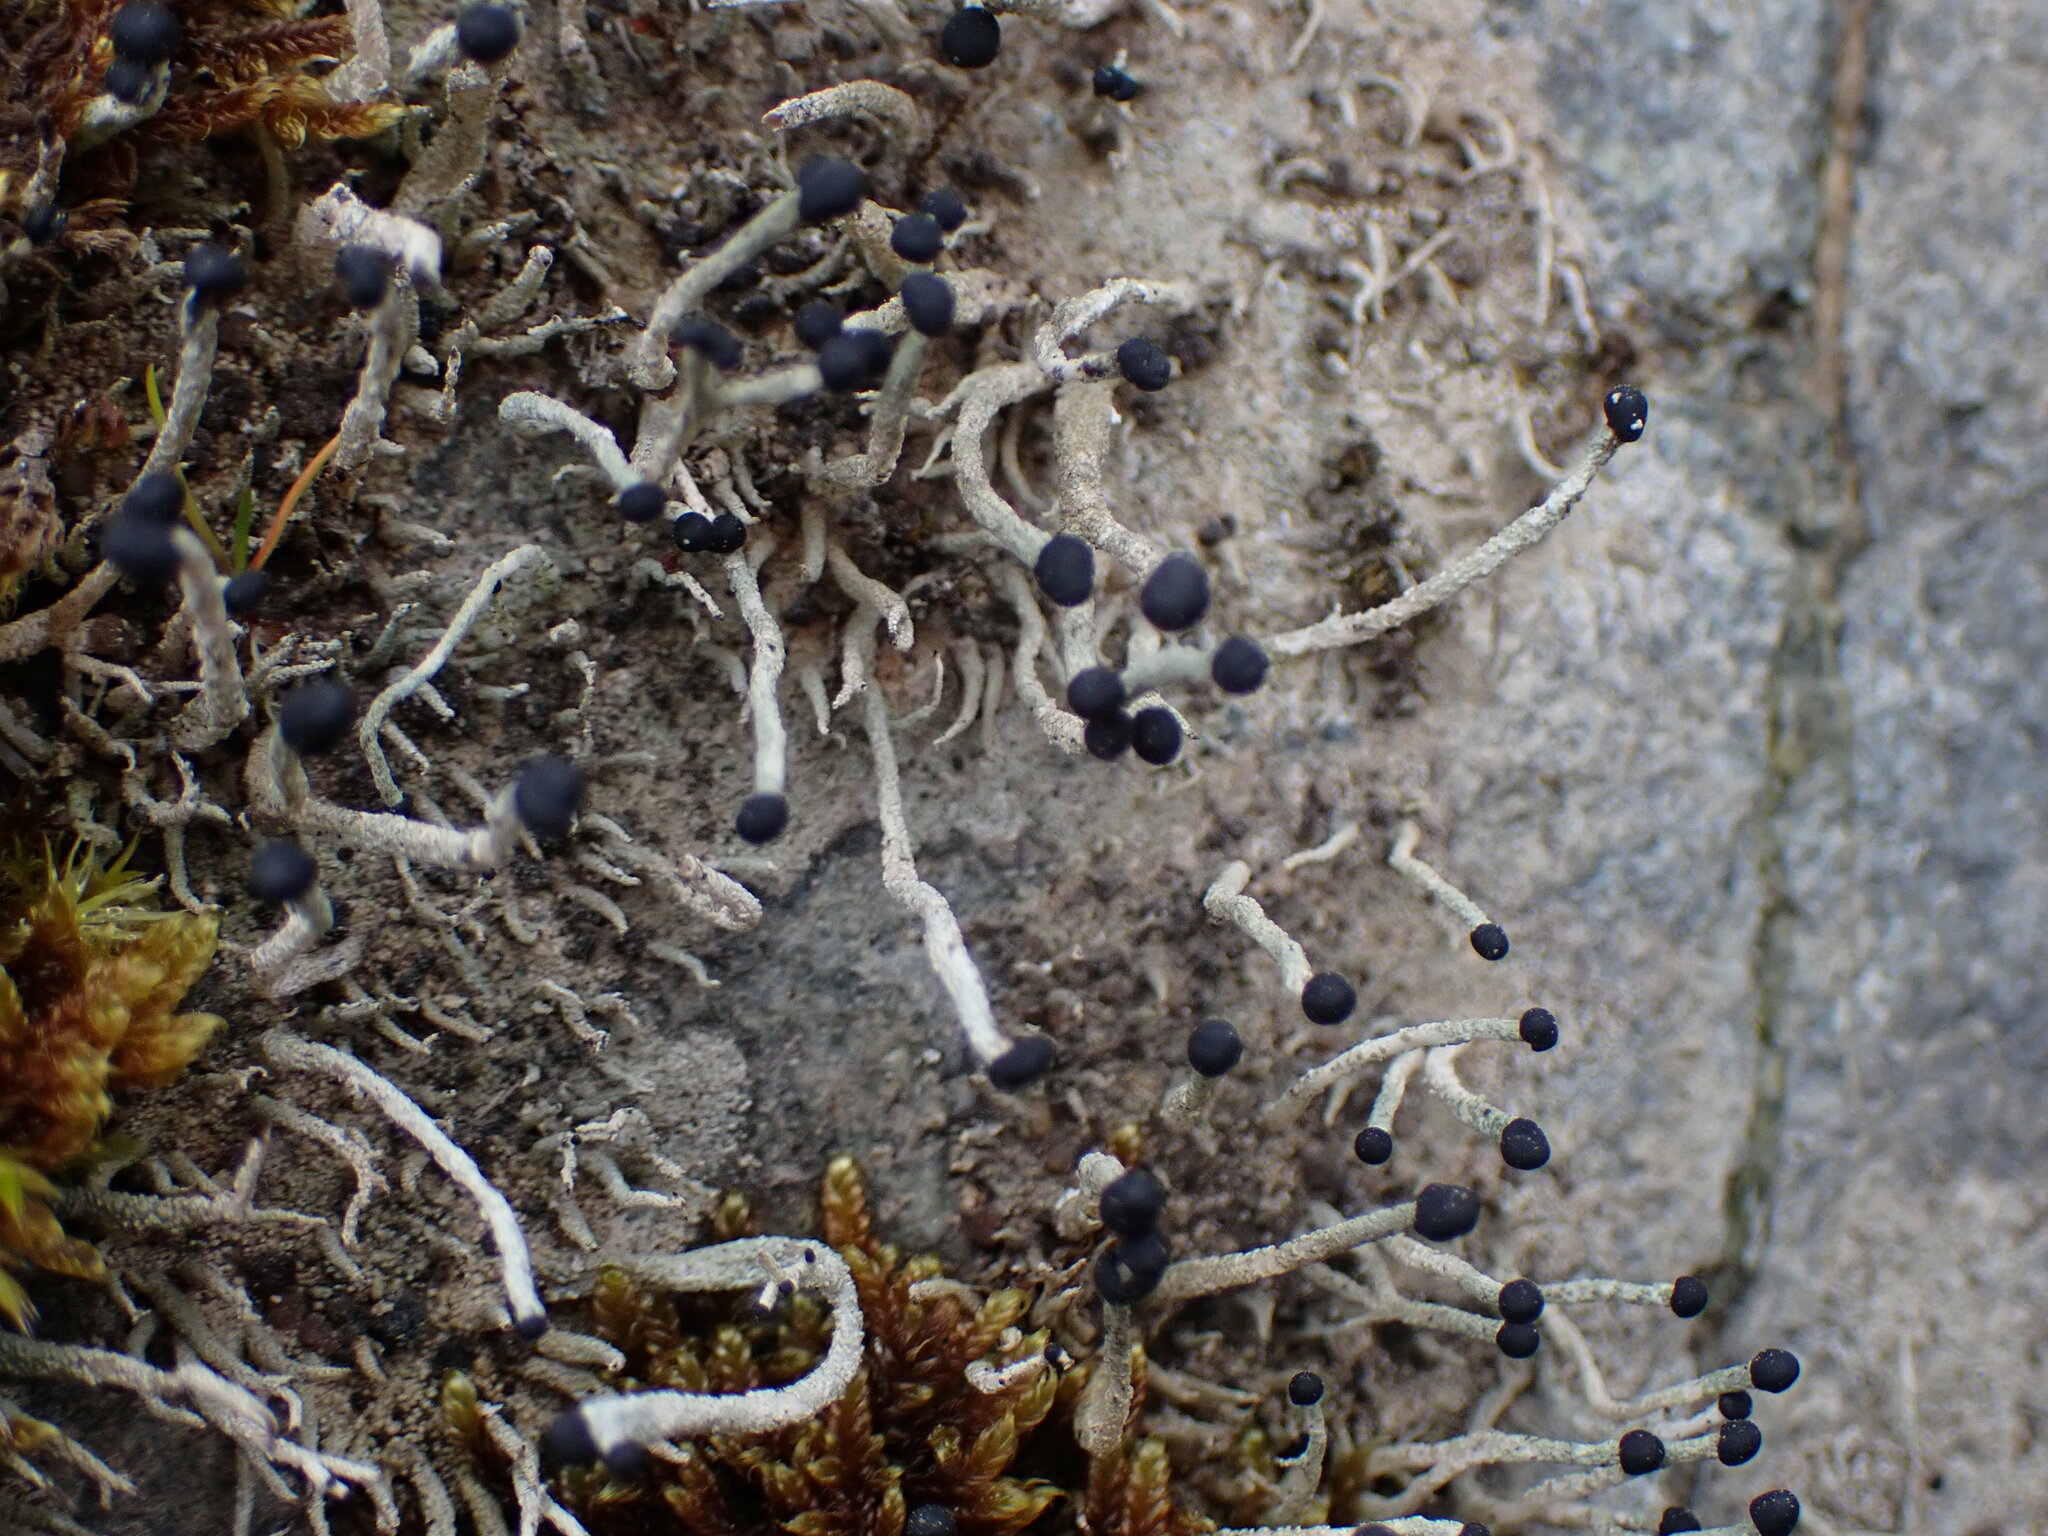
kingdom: Fungi
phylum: Ascomycota
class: Lecanoromycetes
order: Lecanorales
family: Cladoniaceae
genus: Pilophorus
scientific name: Pilophorus acicularis
